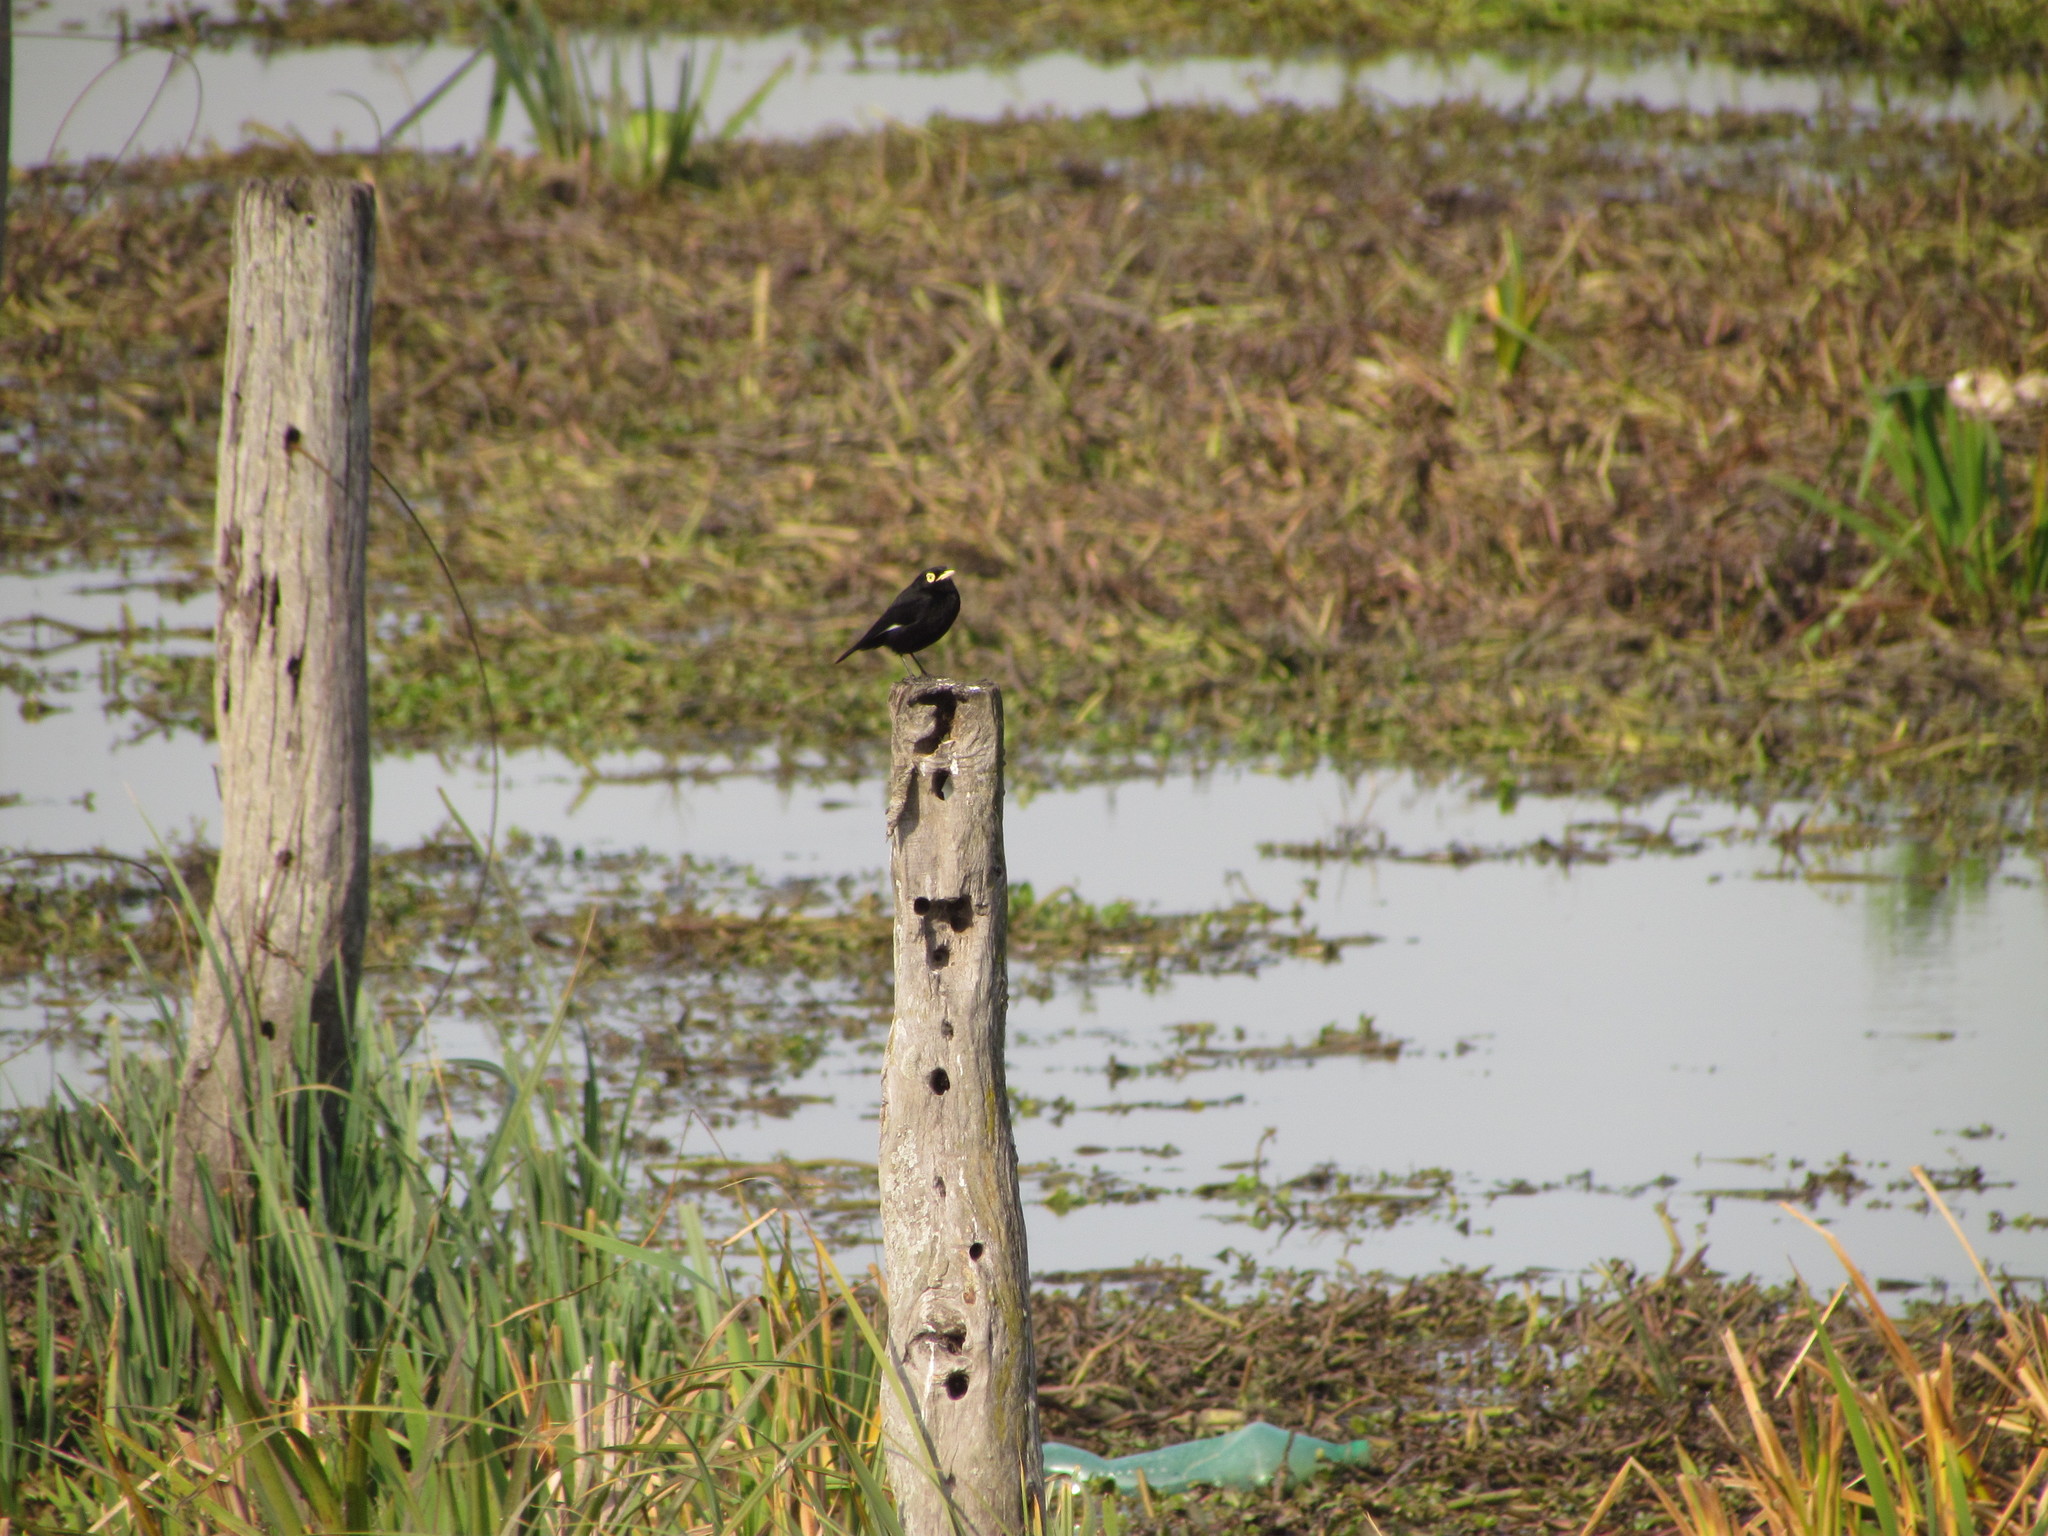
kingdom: Animalia
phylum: Chordata
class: Aves
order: Passeriformes
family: Tyrannidae
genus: Hymenops
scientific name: Hymenops perspicillatus
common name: Spectacled tyrant
